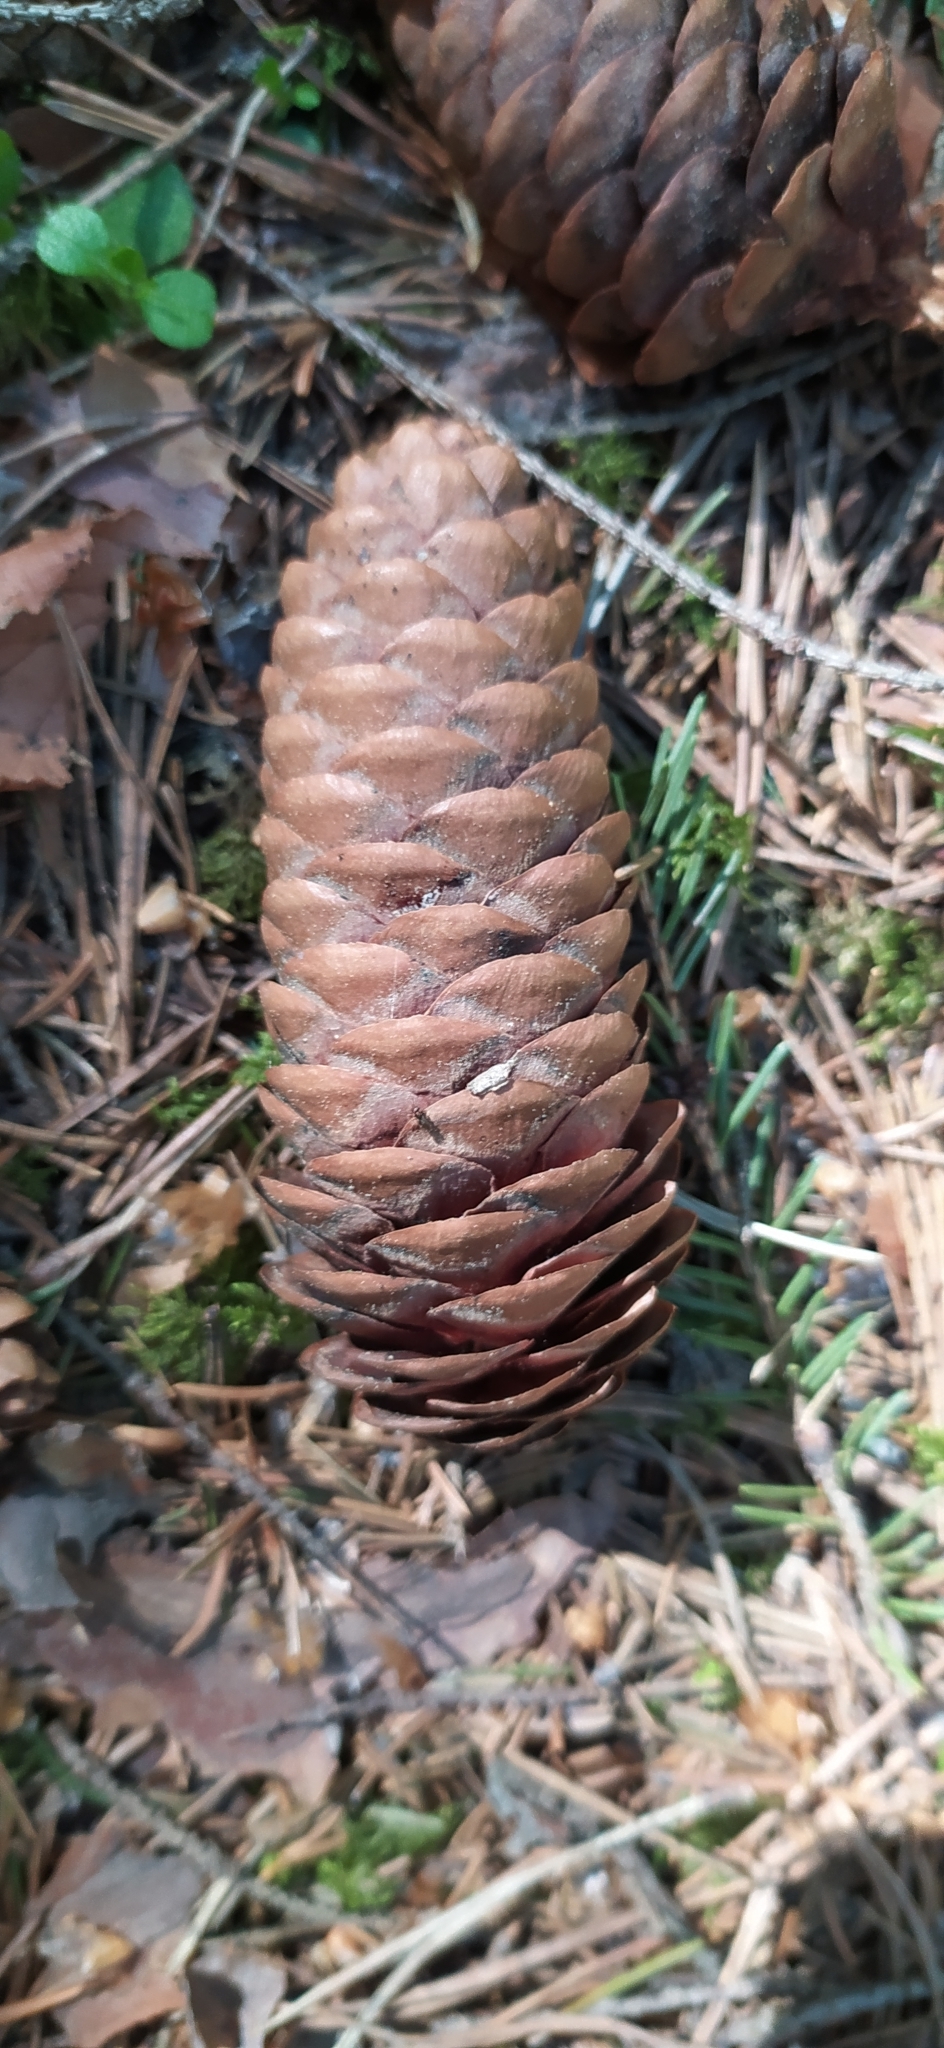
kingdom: Plantae
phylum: Tracheophyta
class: Pinopsida
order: Pinales
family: Pinaceae
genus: Picea
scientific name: Picea obovata
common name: Siberian spruce
